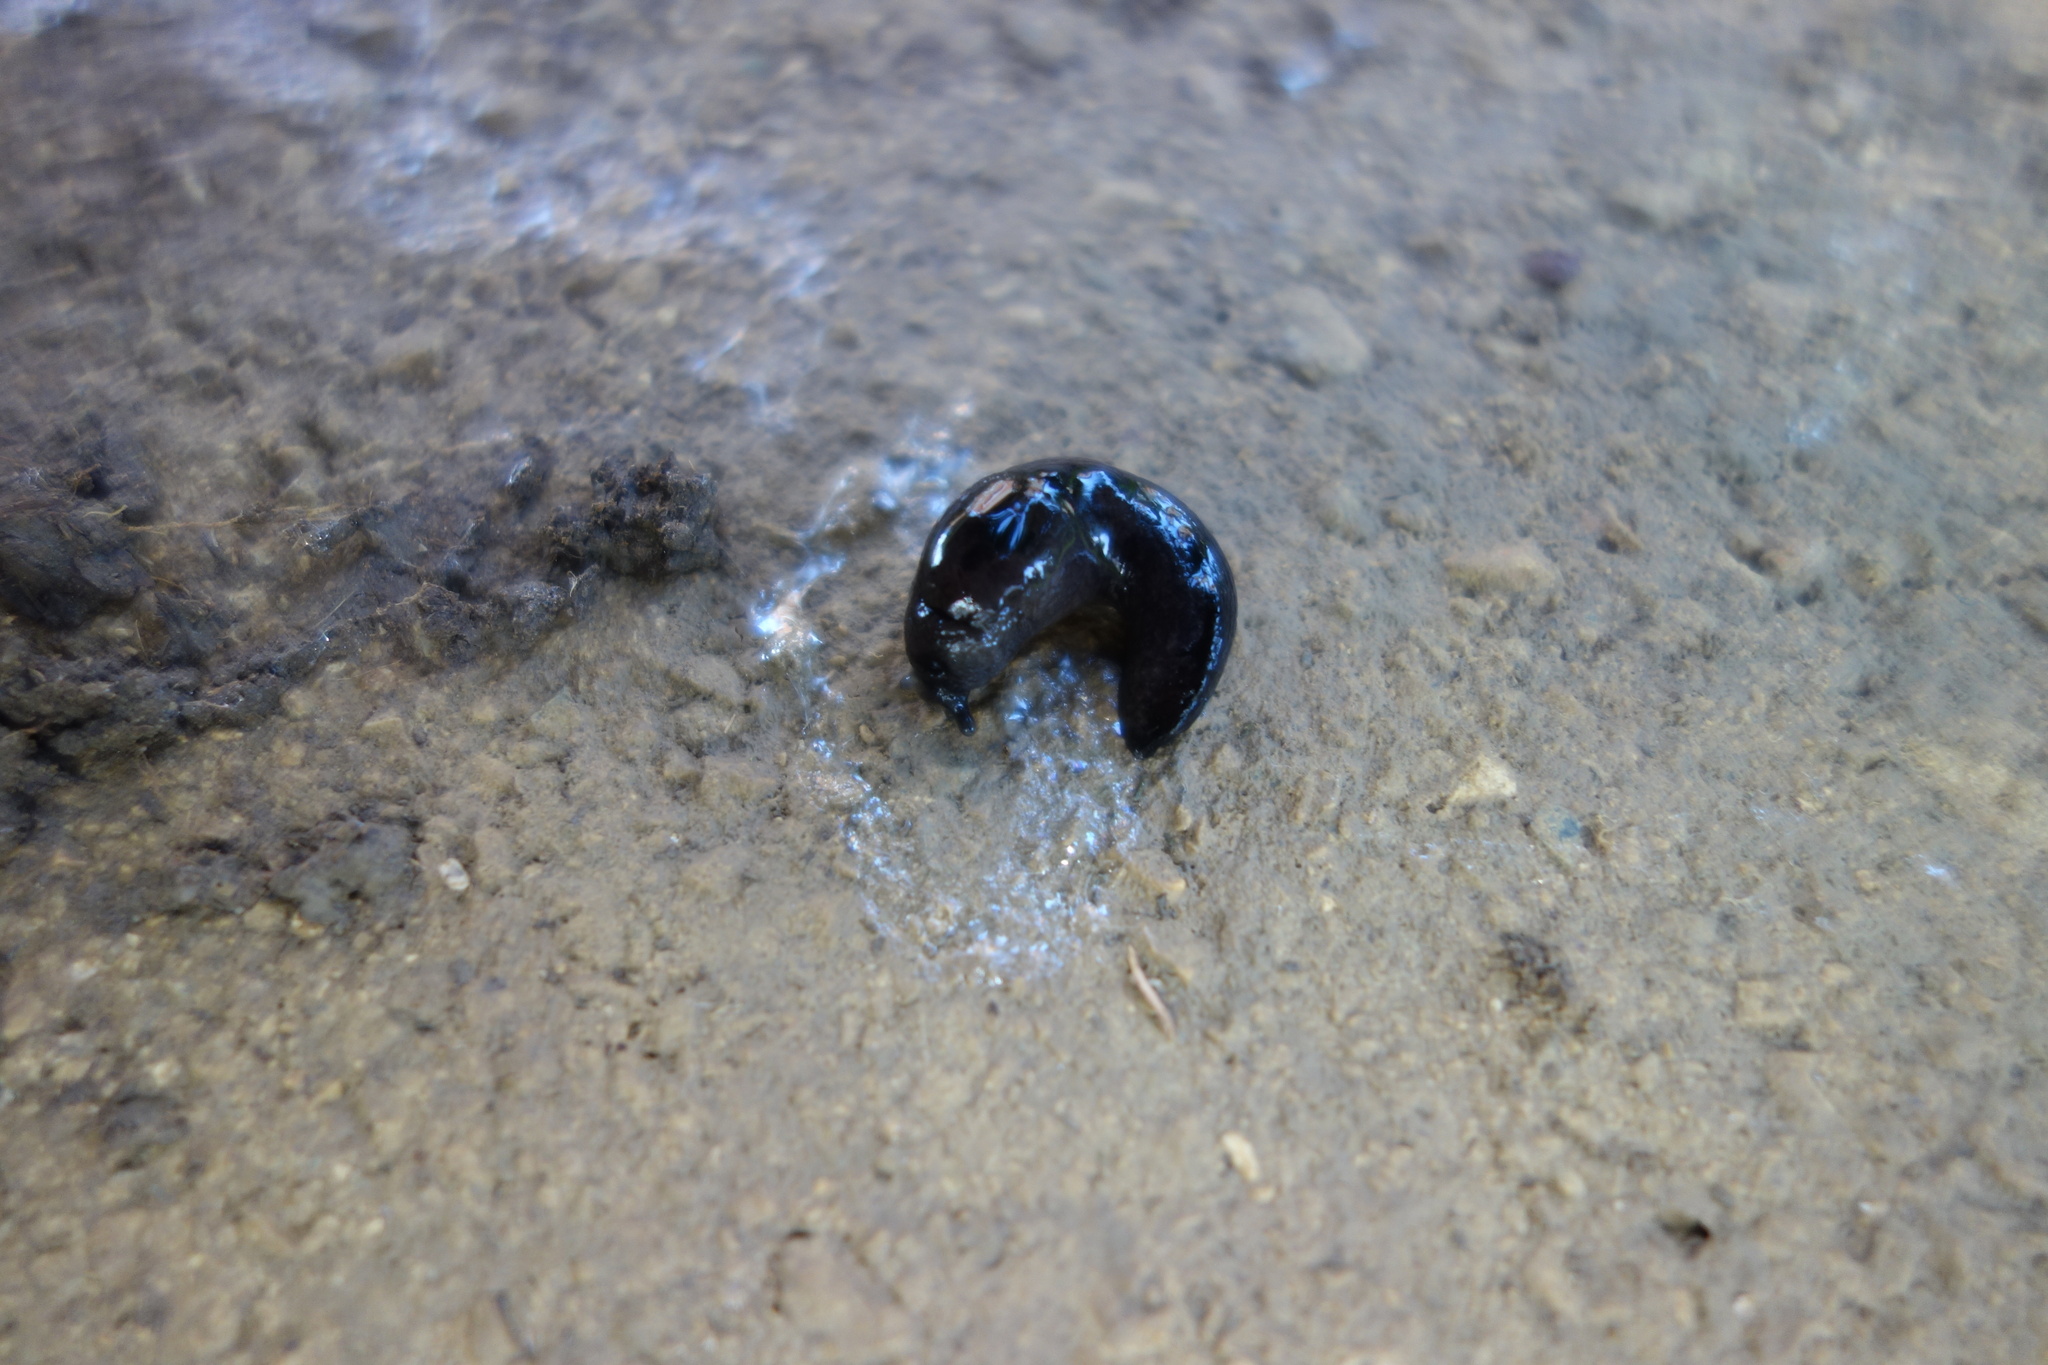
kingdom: Animalia
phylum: Mollusca
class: Gastropoda
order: Stylommatophora
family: Milacidae
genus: Milax
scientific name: Milax nigricans
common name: Black slug
